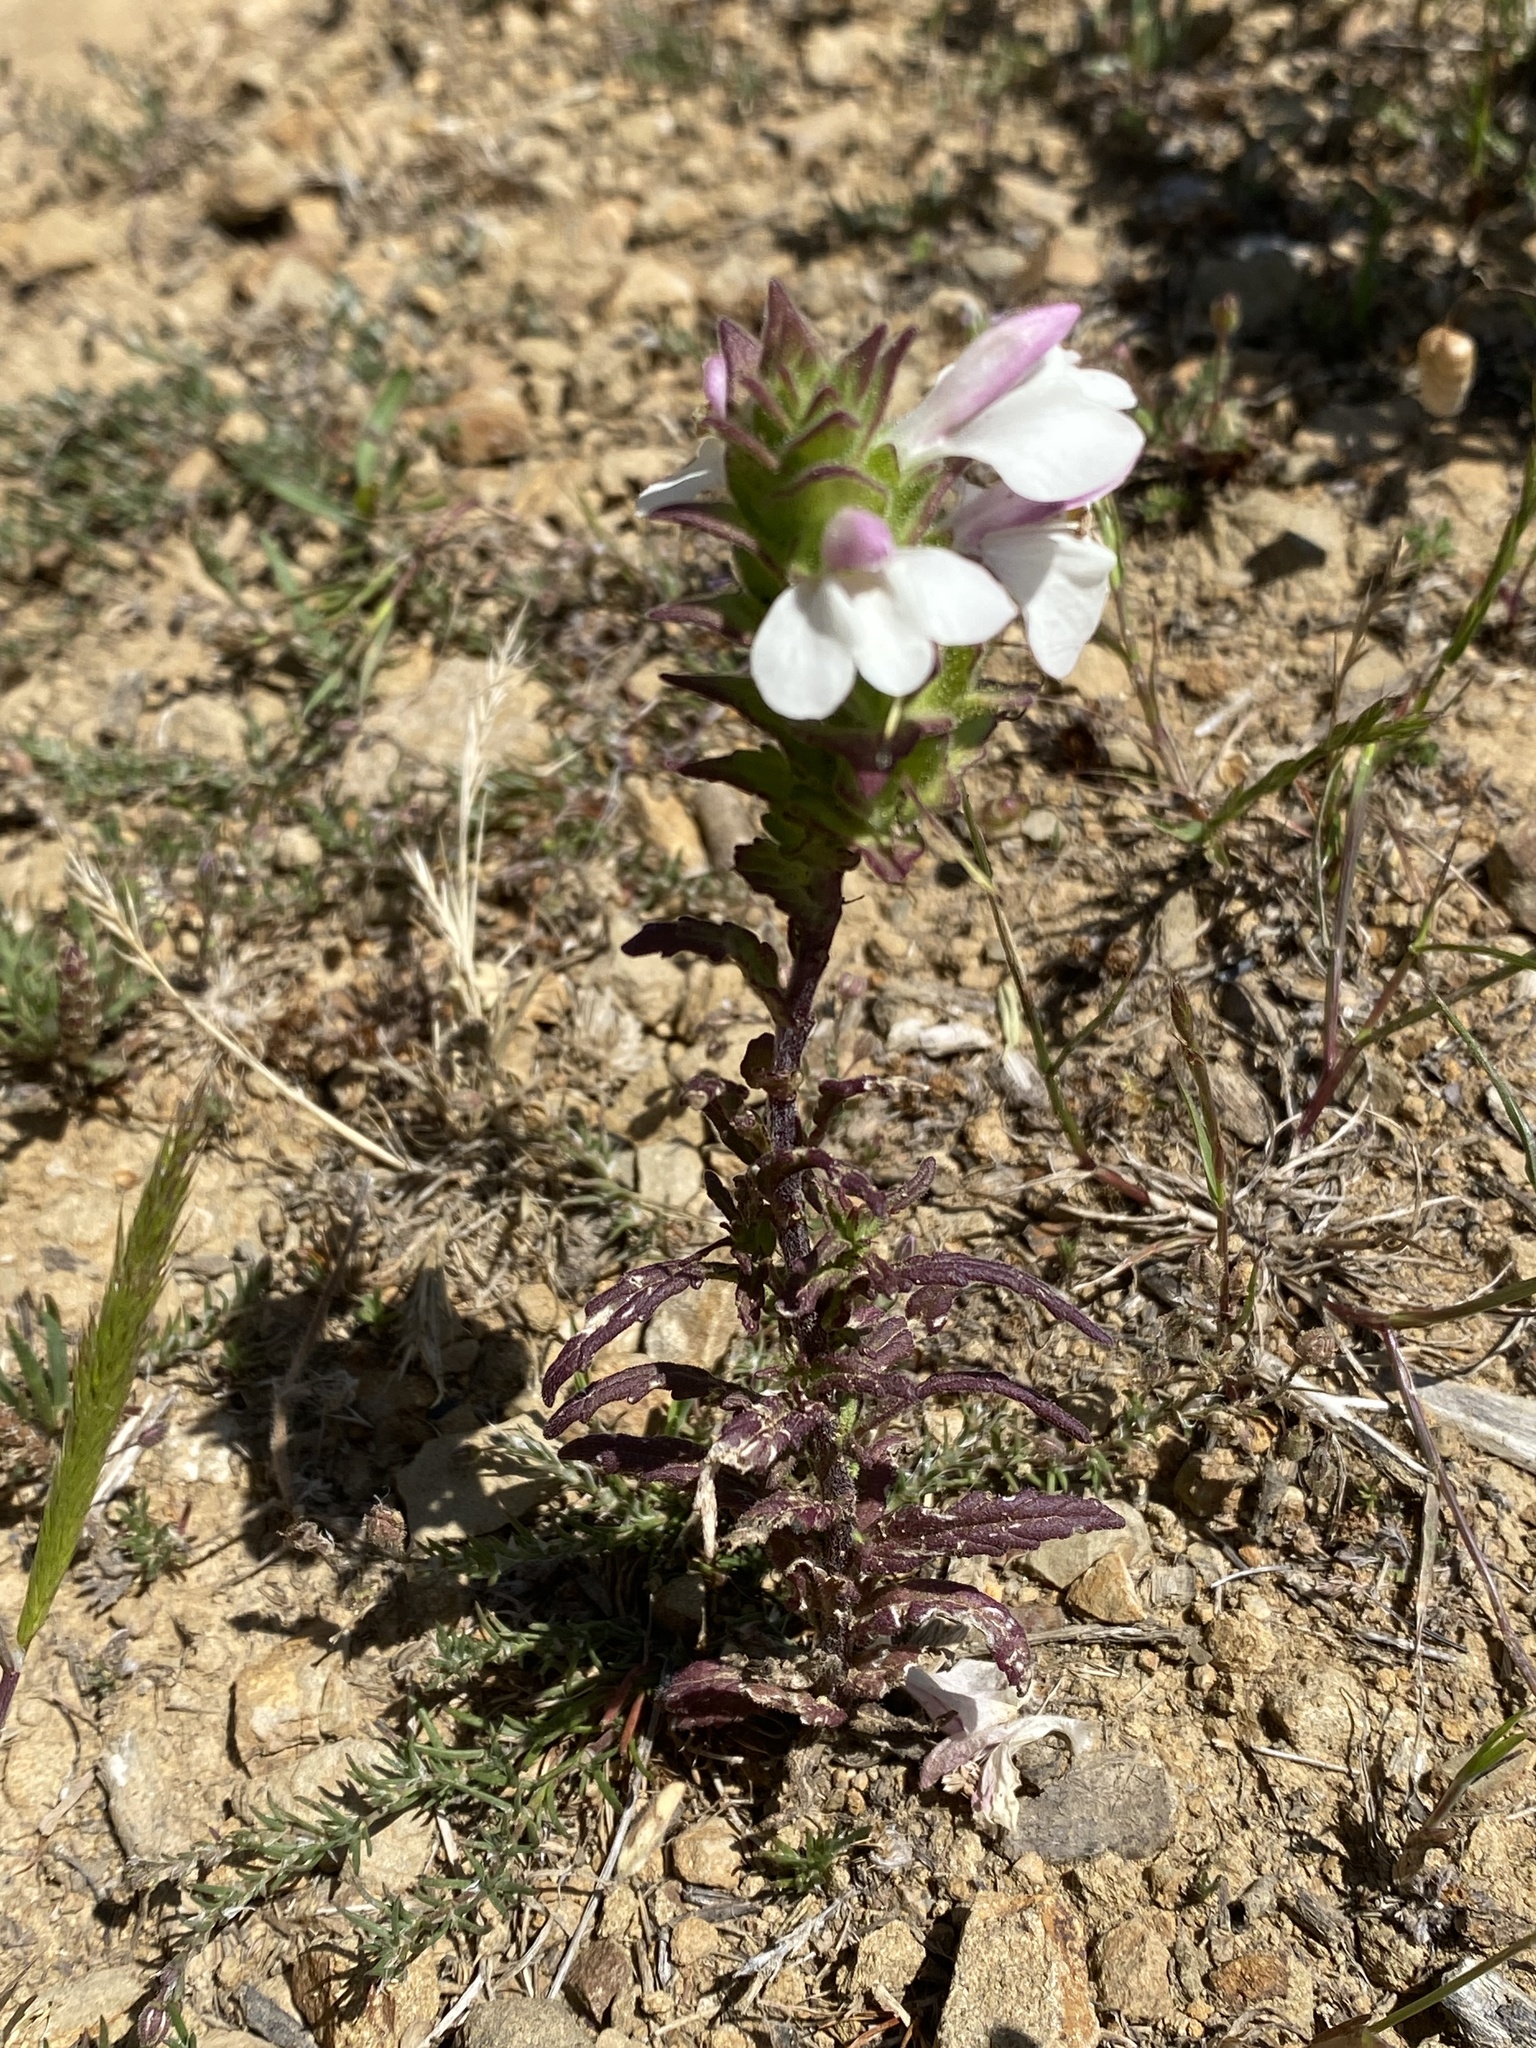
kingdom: Plantae
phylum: Tracheophyta
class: Magnoliopsida
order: Lamiales
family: Orobanchaceae
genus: Bellardia
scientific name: Bellardia trixago
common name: Mediterranean lineseed
